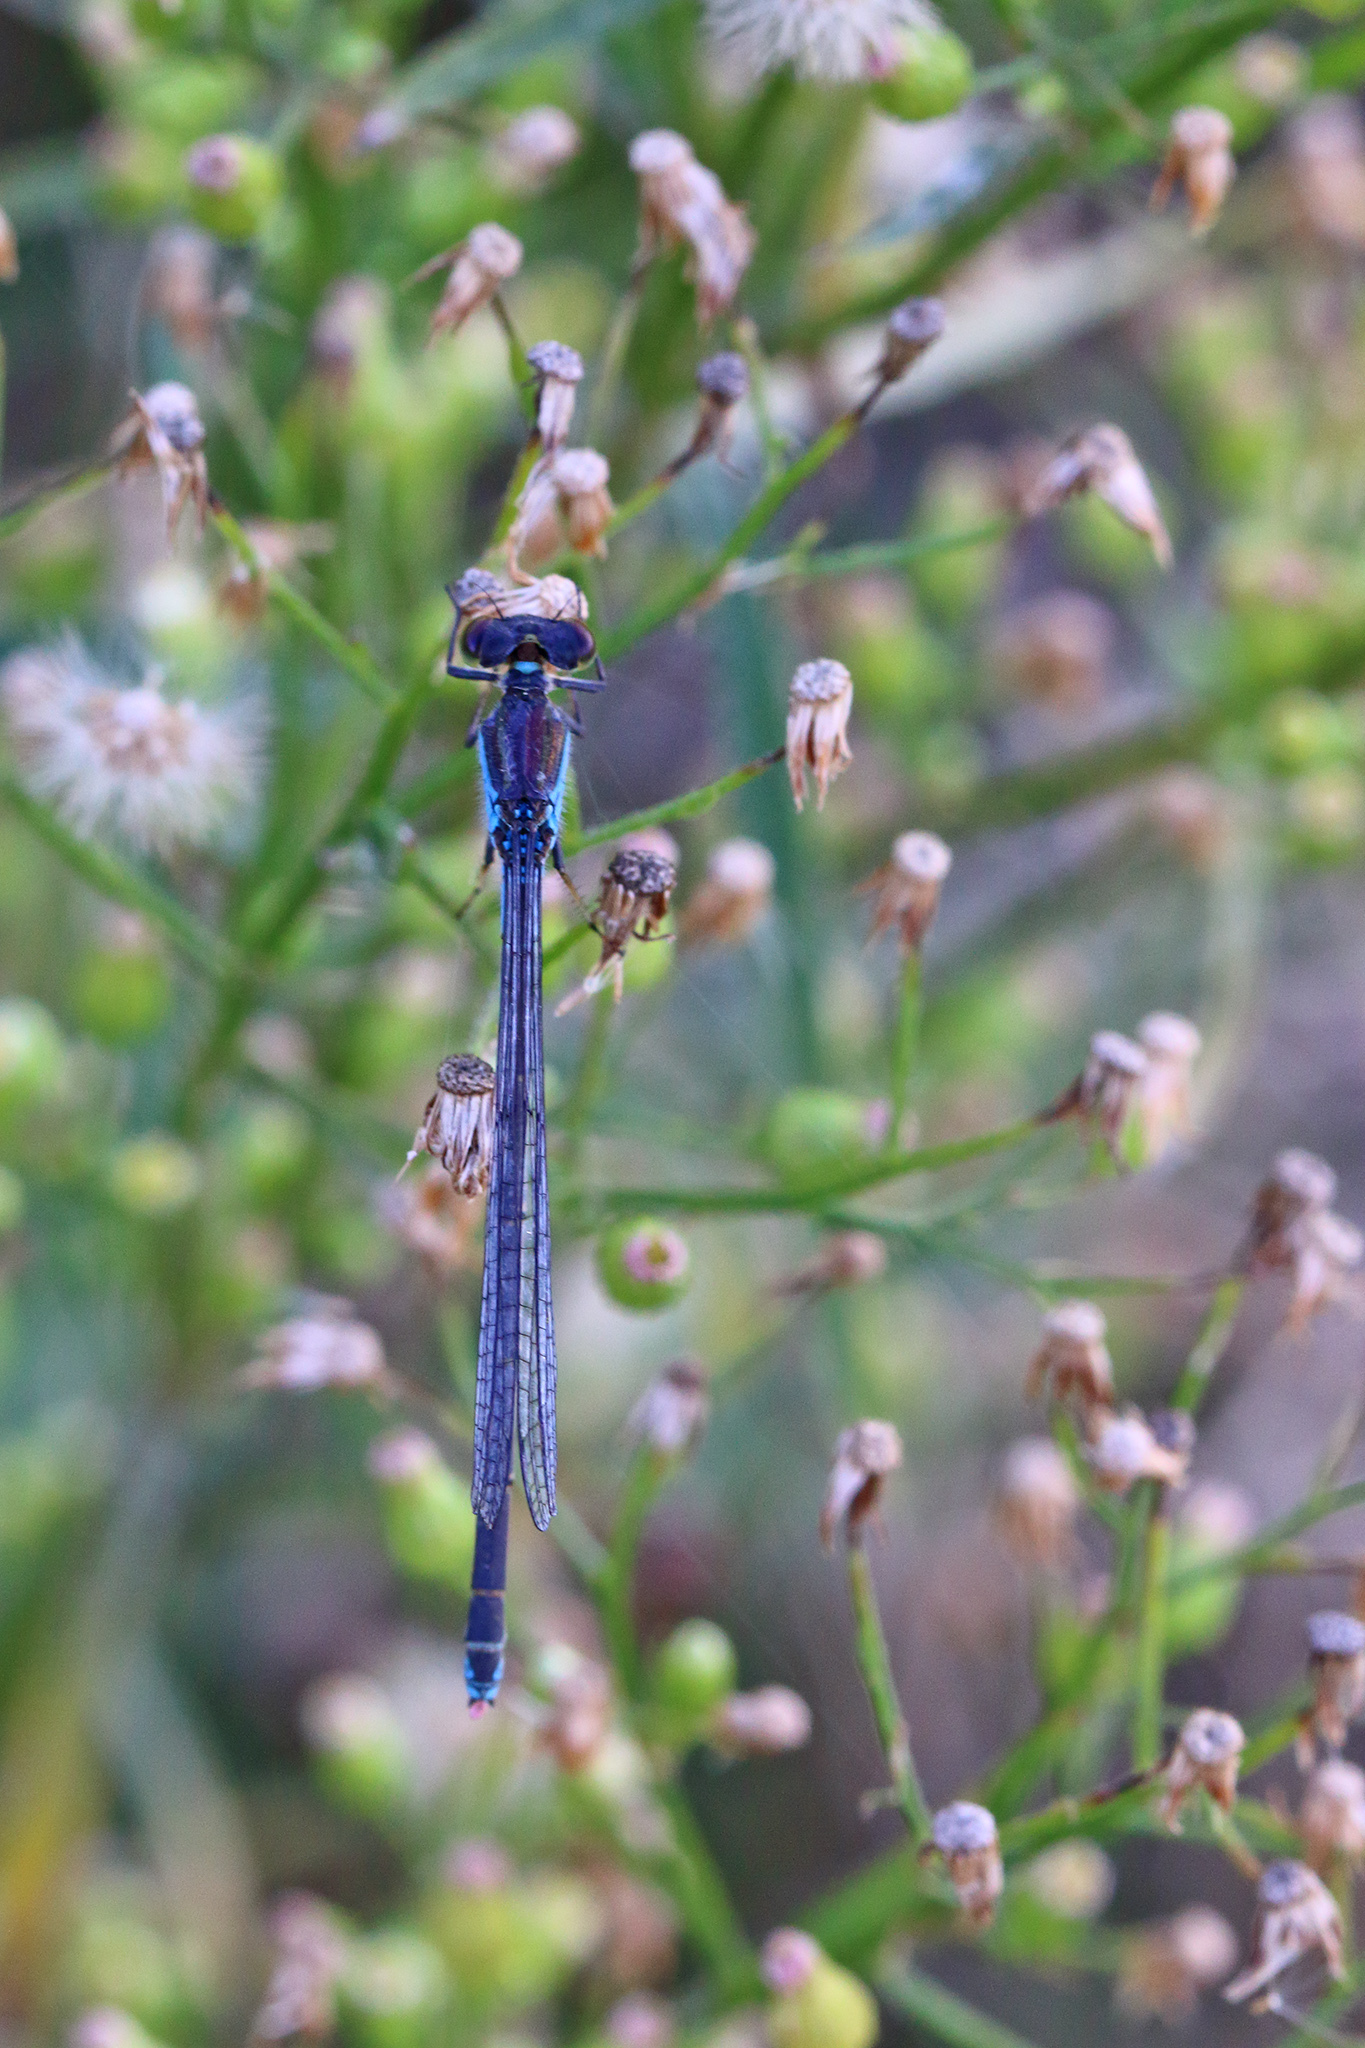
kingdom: Animalia
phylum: Arthropoda
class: Insecta
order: Odonata
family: Coenagrionidae
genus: Erythromma
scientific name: Erythromma viridulum
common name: Small red-eyed damselfly
